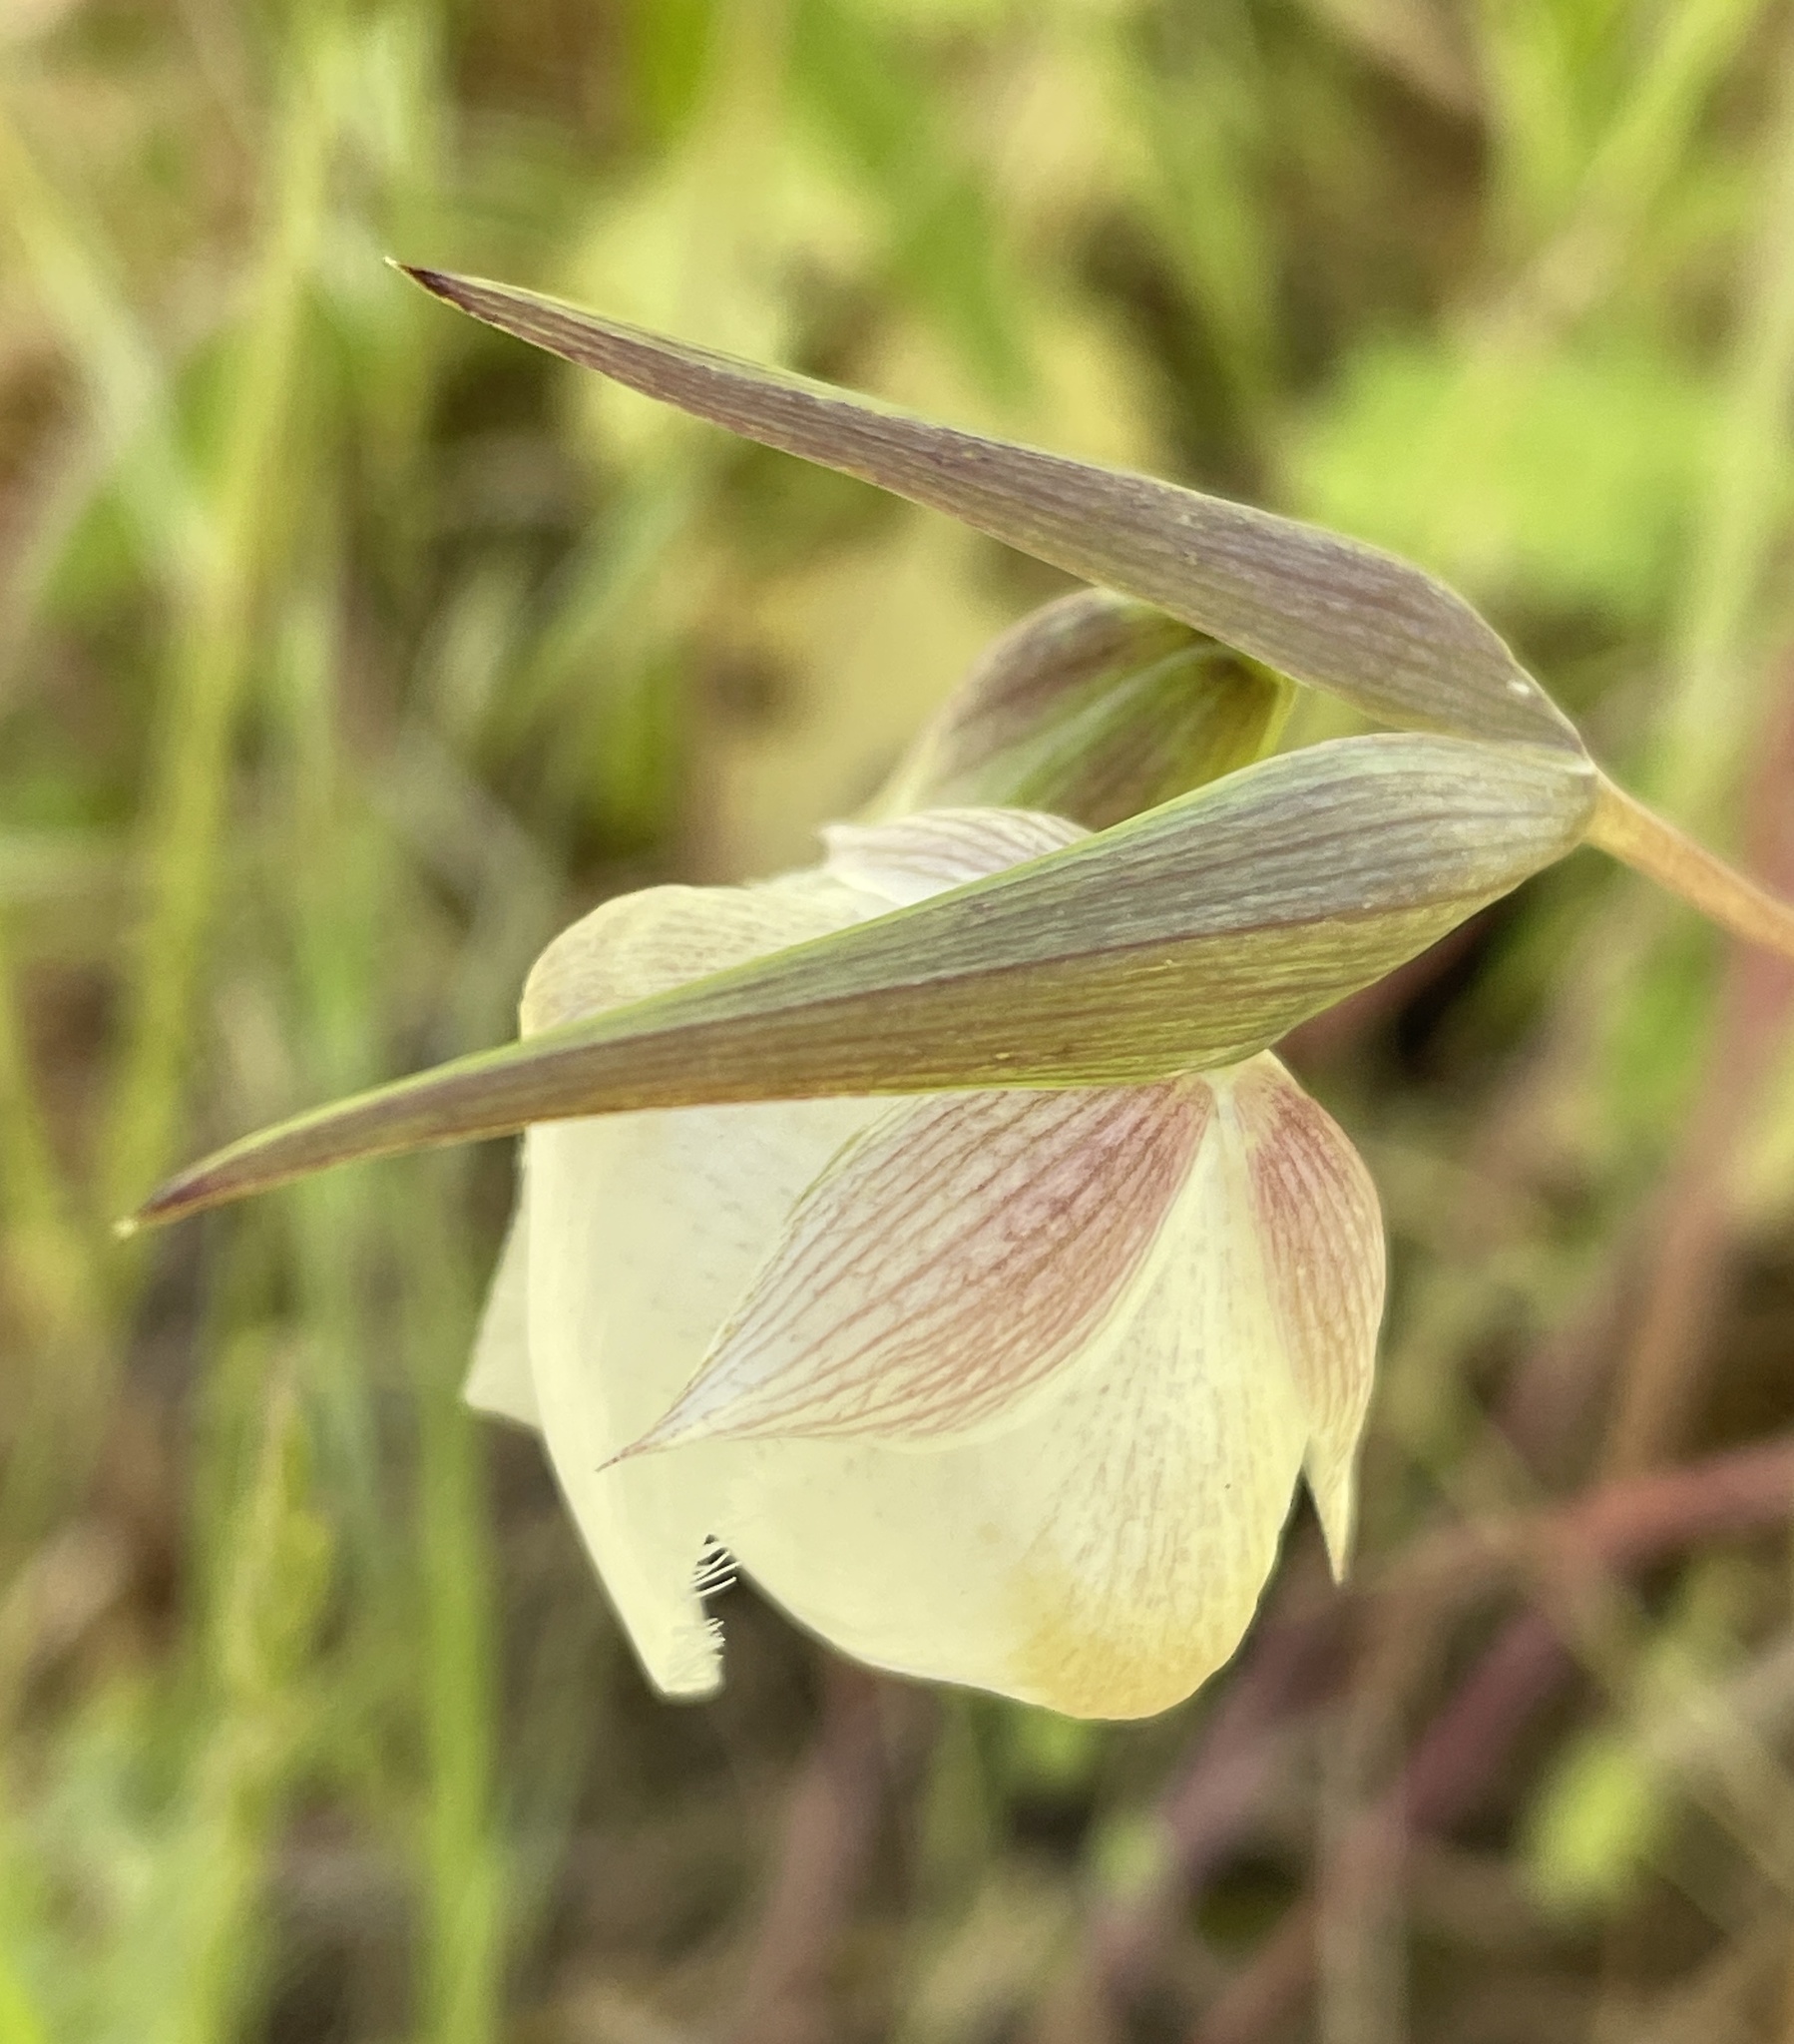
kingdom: Plantae
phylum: Tracheophyta
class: Liliopsida
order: Liliales
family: Liliaceae
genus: Calochortus
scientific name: Calochortus albus
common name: Fairy-lantern
